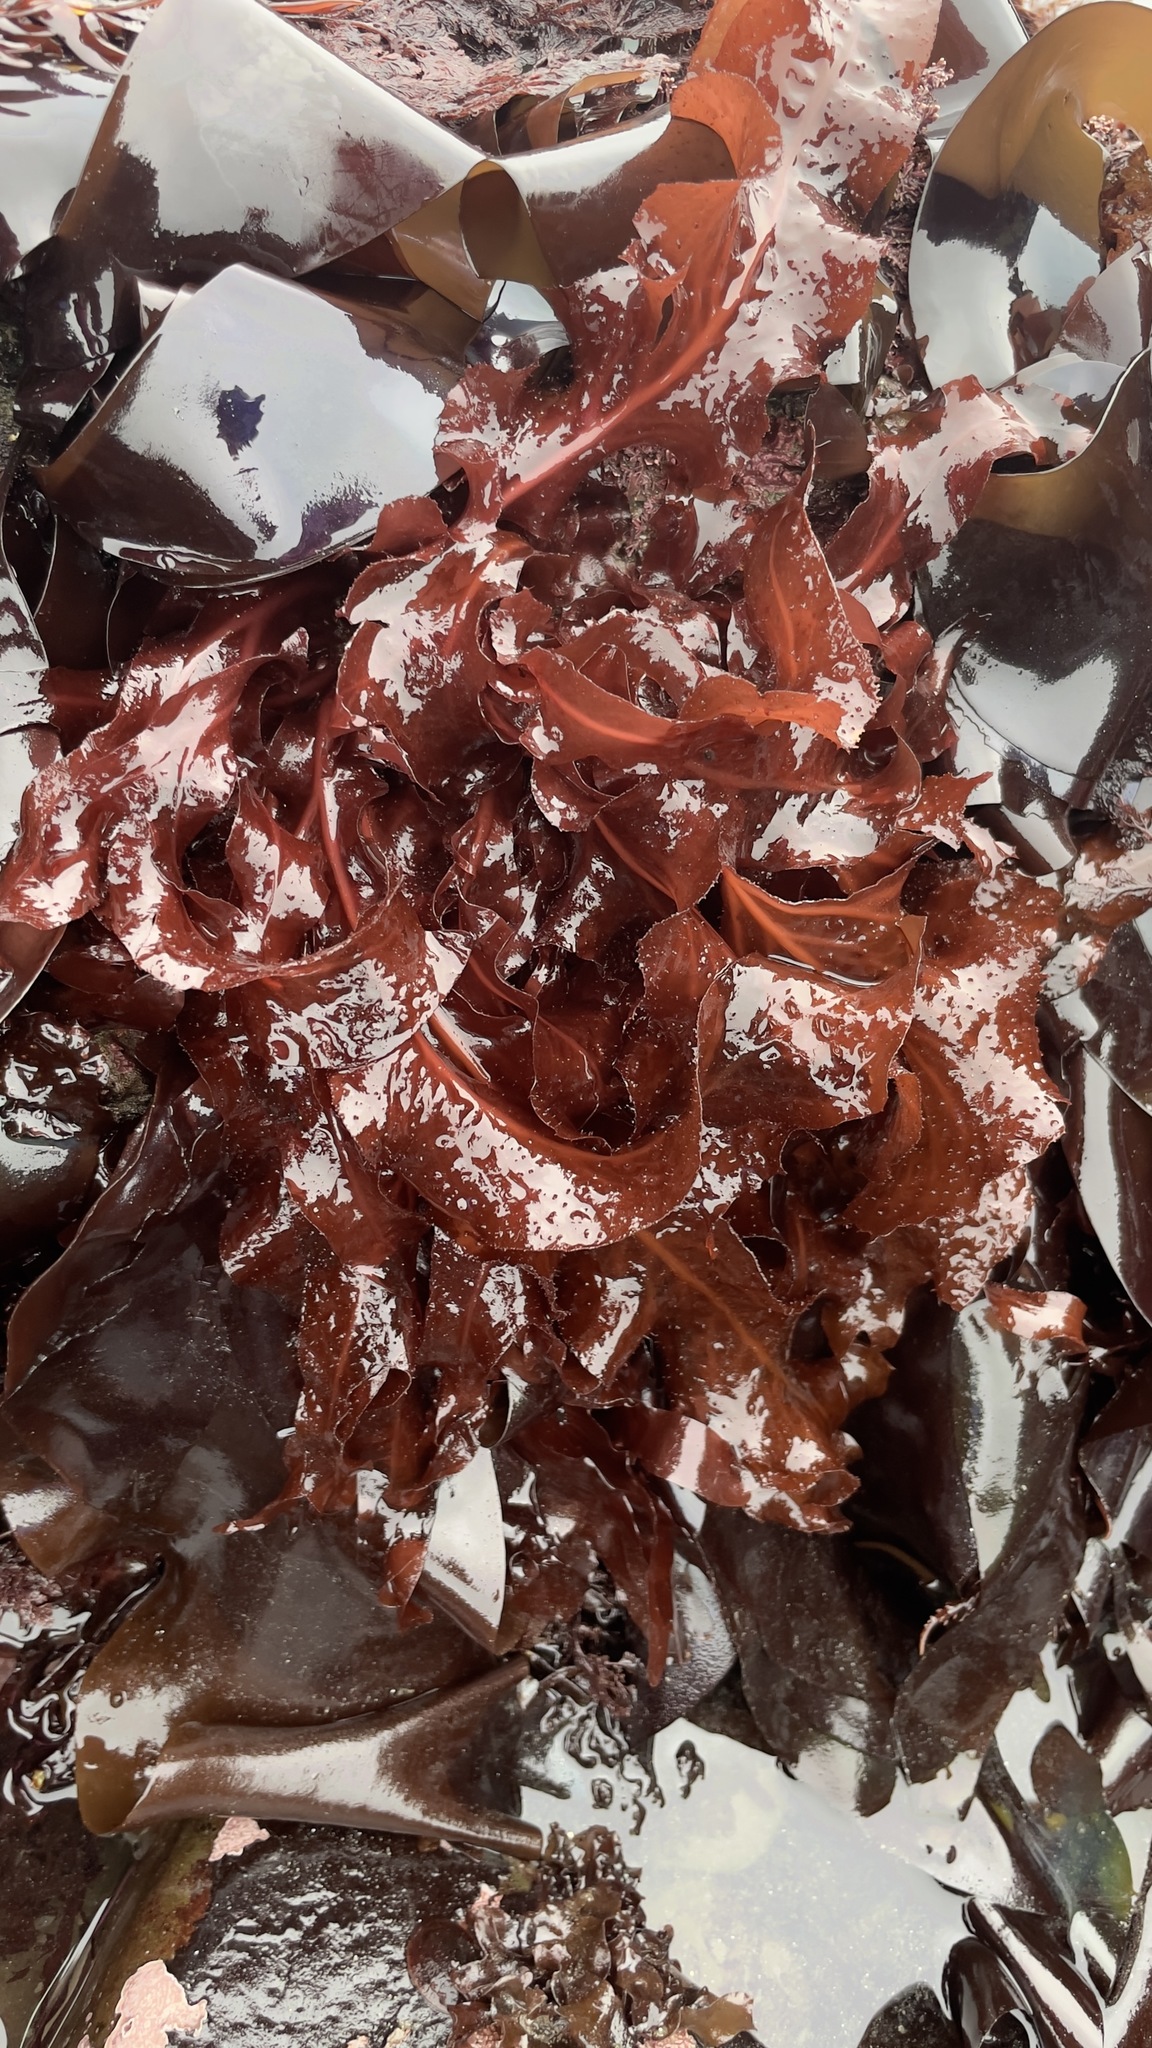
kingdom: Plantae
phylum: Rhodophyta
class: Florideophyceae
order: Gigartinales
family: Kallymeniaceae
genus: Erythrophyllum
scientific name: Erythrophyllum delesserioides
